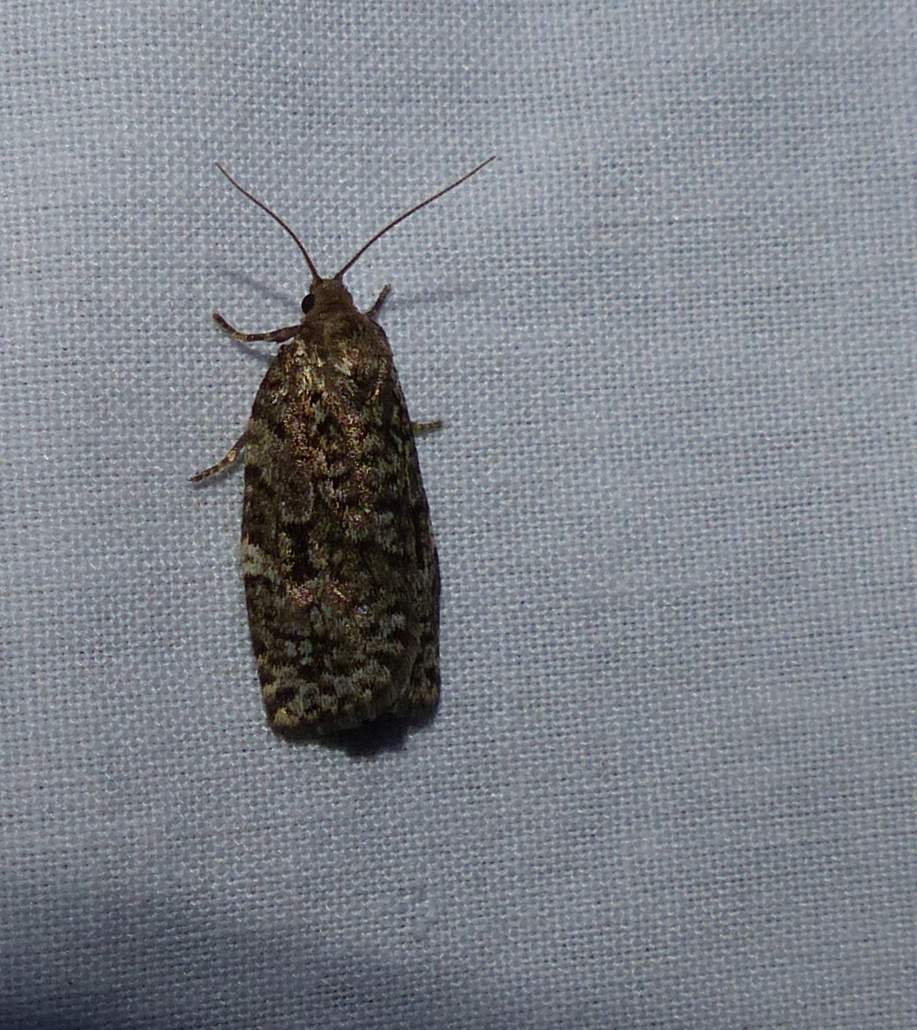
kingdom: Animalia
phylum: Arthropoda
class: Insecta
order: Lepidoptera
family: Tortricidae
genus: Choristoneura
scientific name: Choristoneura fumiferana
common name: Spruce budworm
